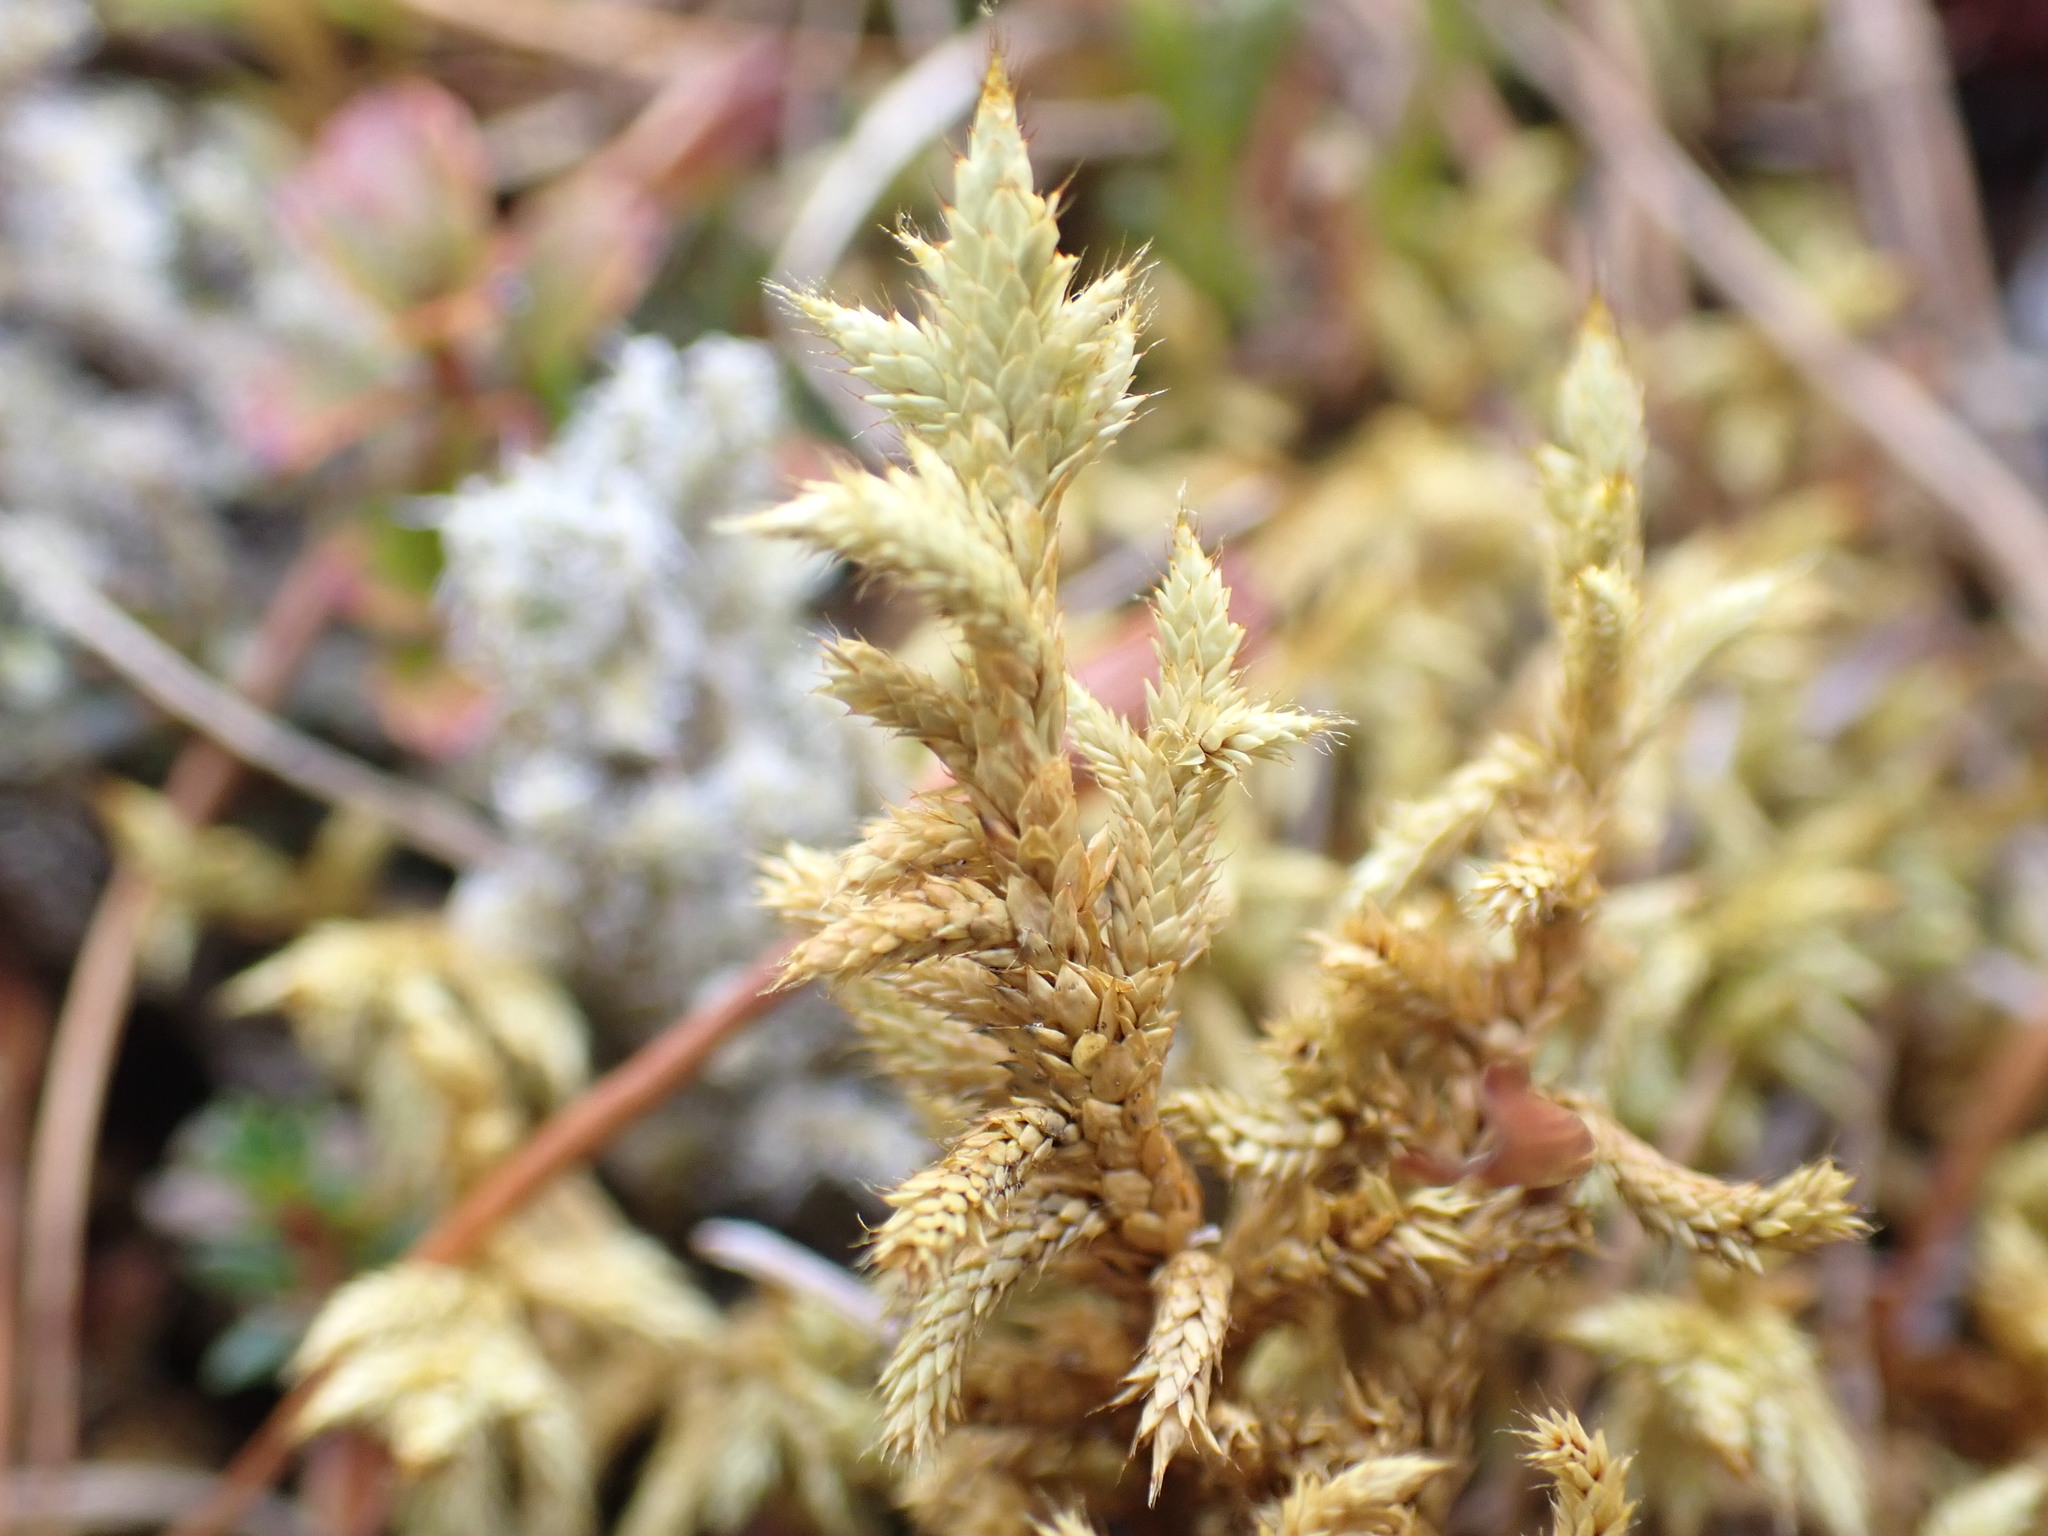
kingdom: Plantae
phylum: Bryophyta
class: Bryopsida
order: Hedwigiales
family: Hedwigiaceae
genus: Rhacocarpus
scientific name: Rhacocarpus purpurascens
